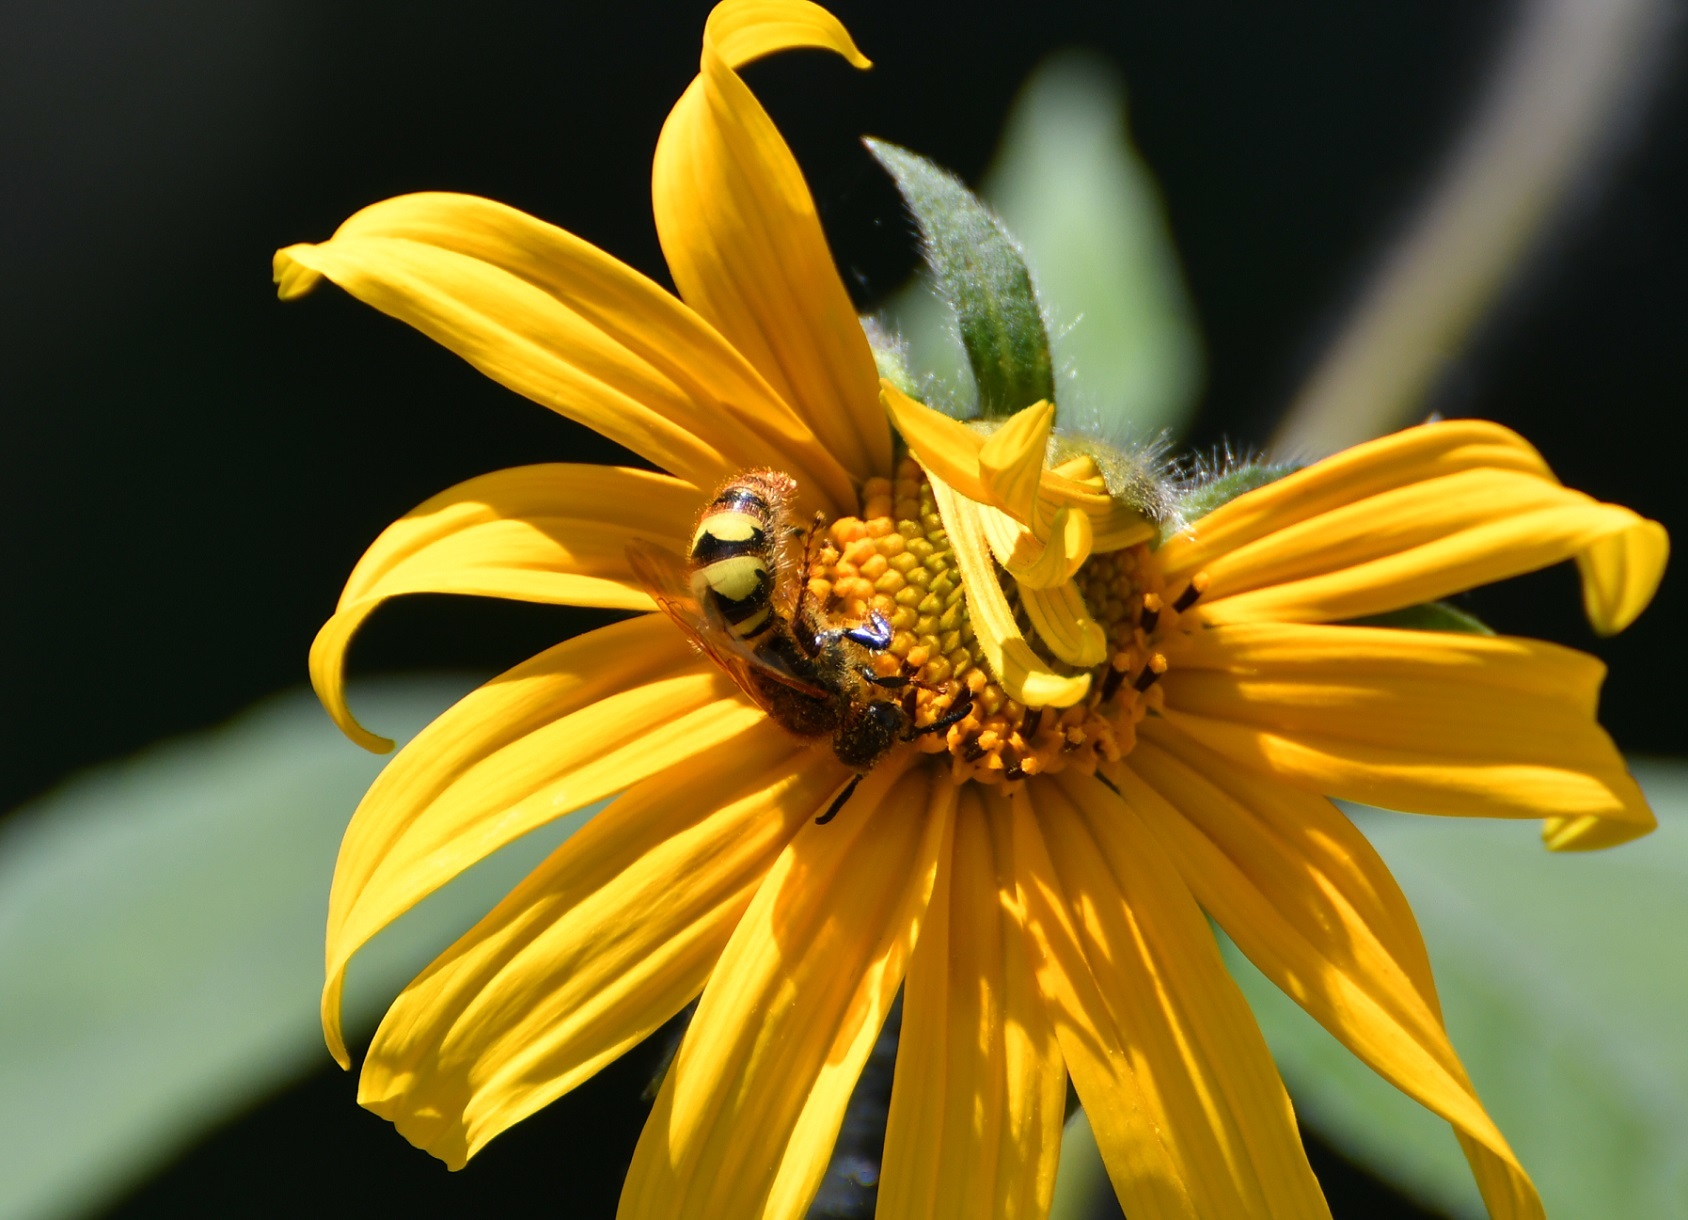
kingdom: Animalia
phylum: Arthropoda
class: Insecta
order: Hymenoptera
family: Scoliidae
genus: Xanthocampsomeris
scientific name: Xanthocampsomeris completa
